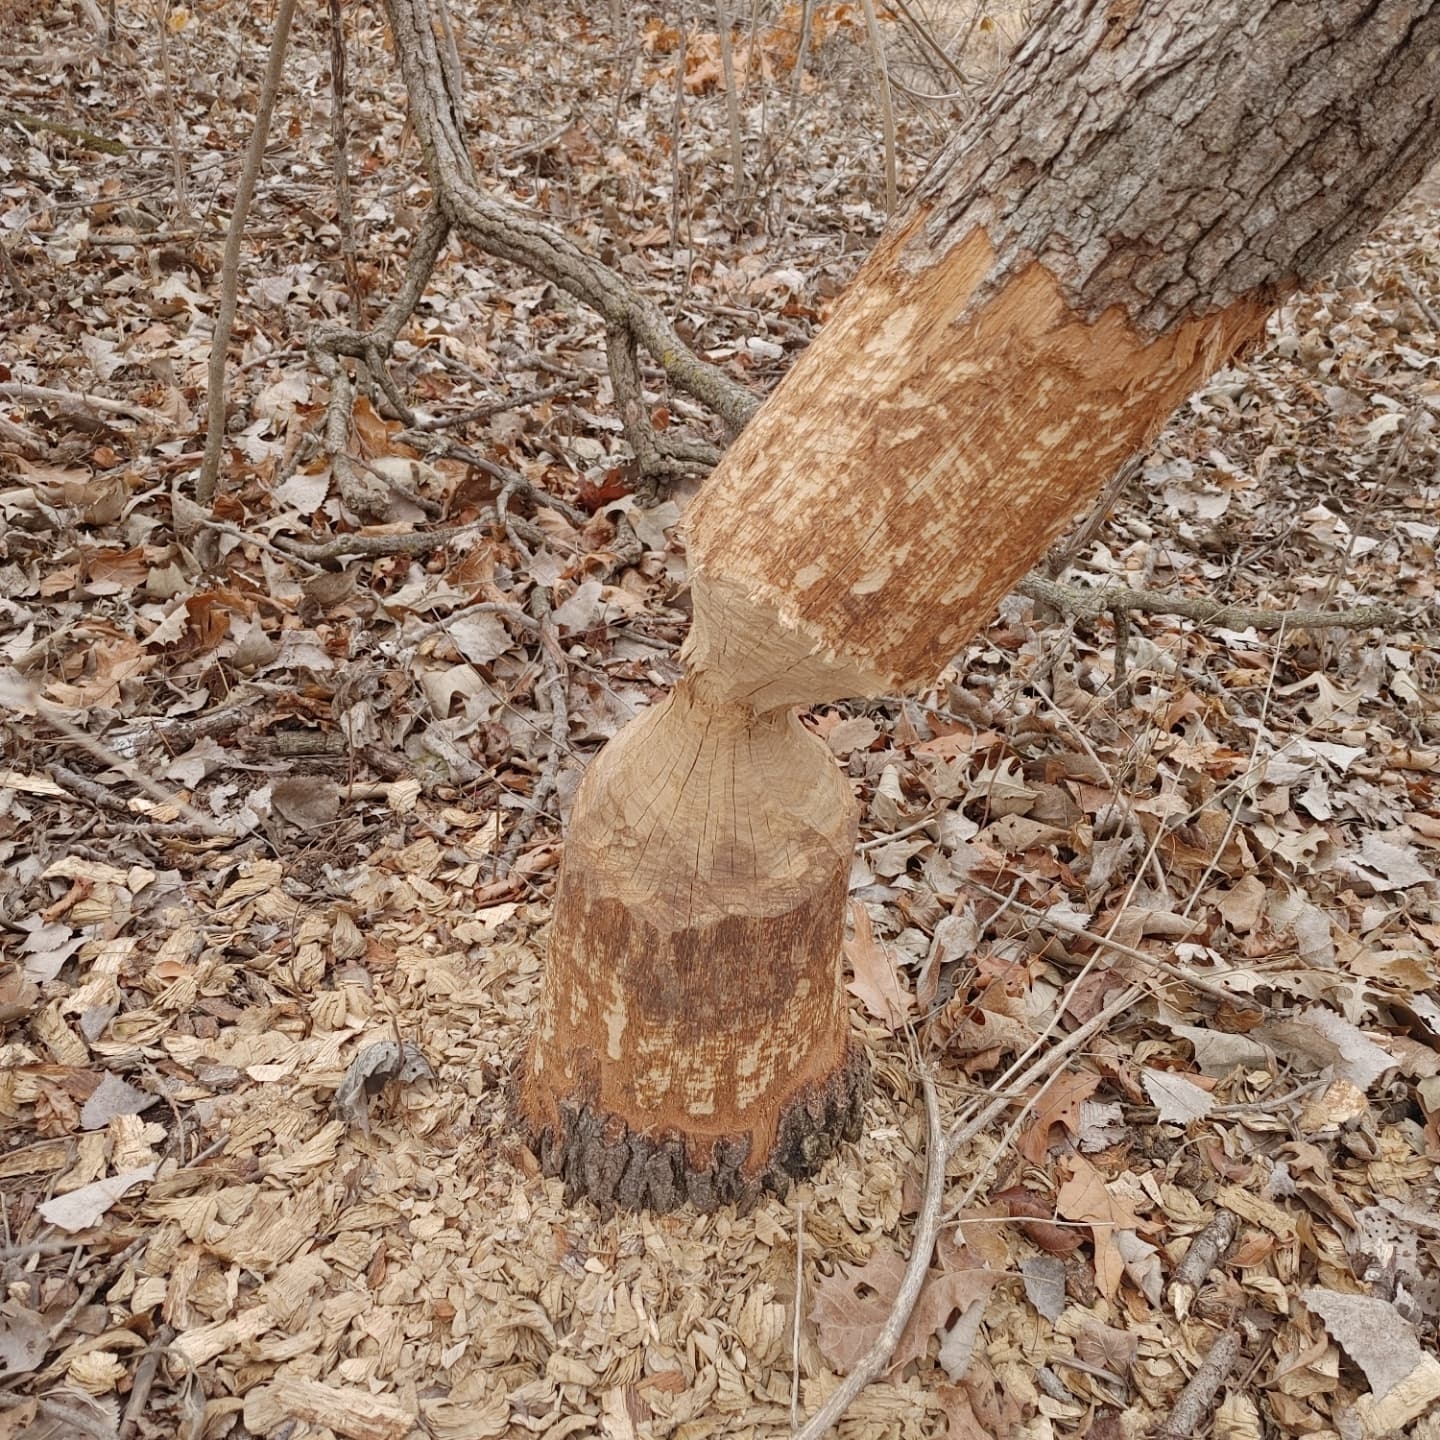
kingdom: Animalia
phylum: Chordata
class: Mammalia
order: Rodentia
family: Castoridae
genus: Castor
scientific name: Castor canadensis
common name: American beaver
